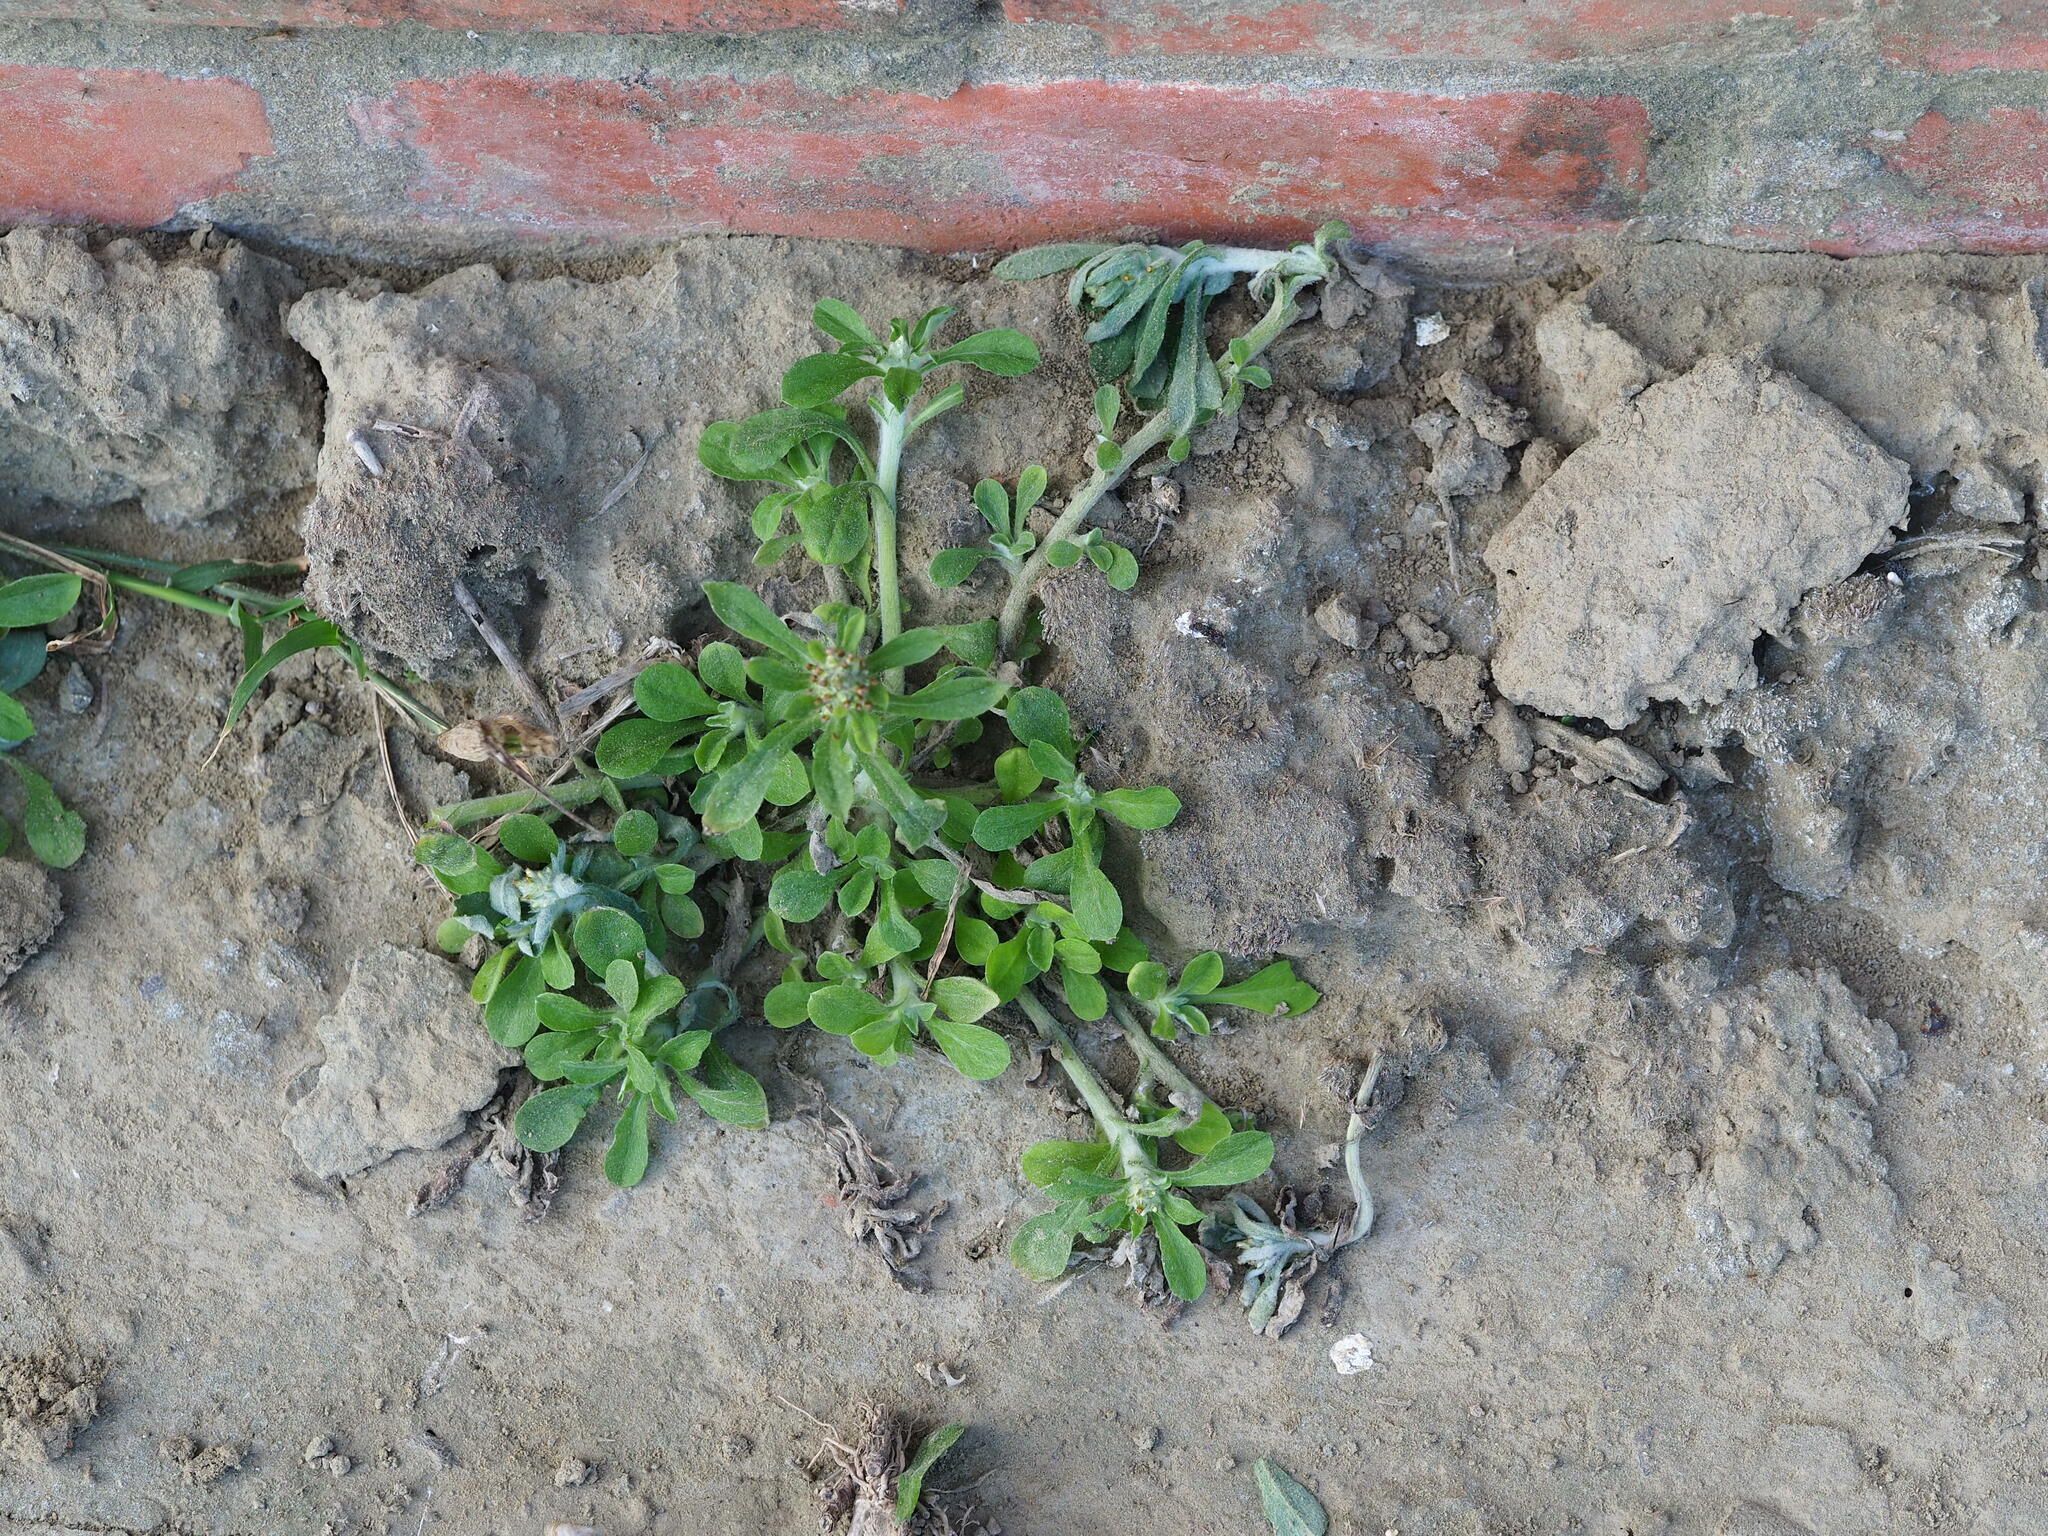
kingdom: Plantae
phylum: Tracheophyta
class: Magnoliopsida
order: Asterales
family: Asteraceae
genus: Gamochaeta
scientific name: Gamochaeta pensylvanica
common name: Pennsylvania everlasting
